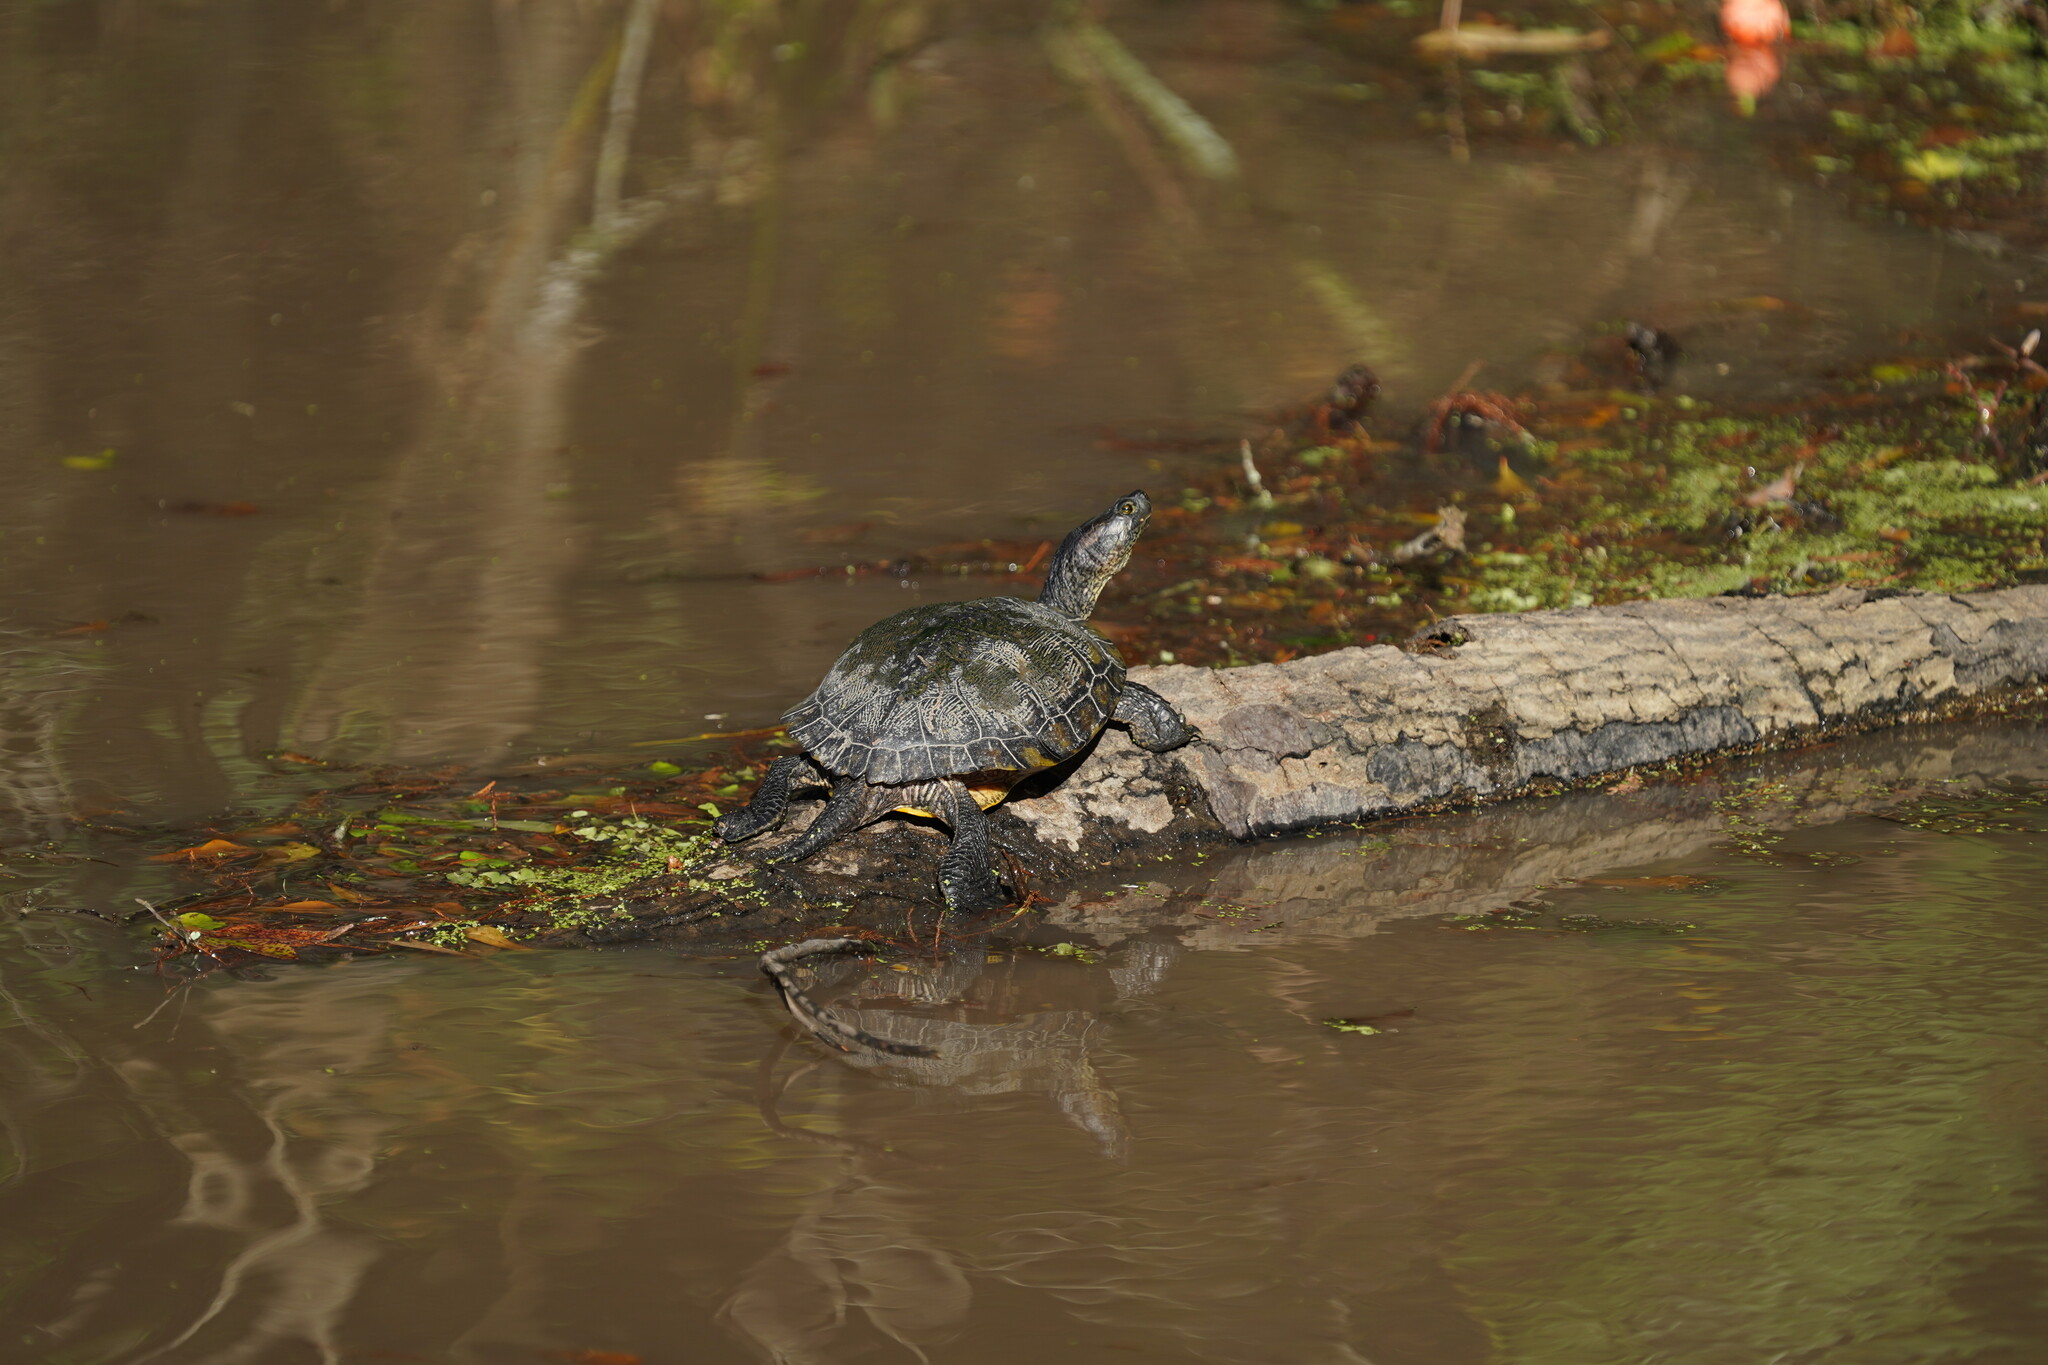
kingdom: Animalia
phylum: Chordata
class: Testudines
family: Emydidae
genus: Trachemys
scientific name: Trachemys scripta
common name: Slider
